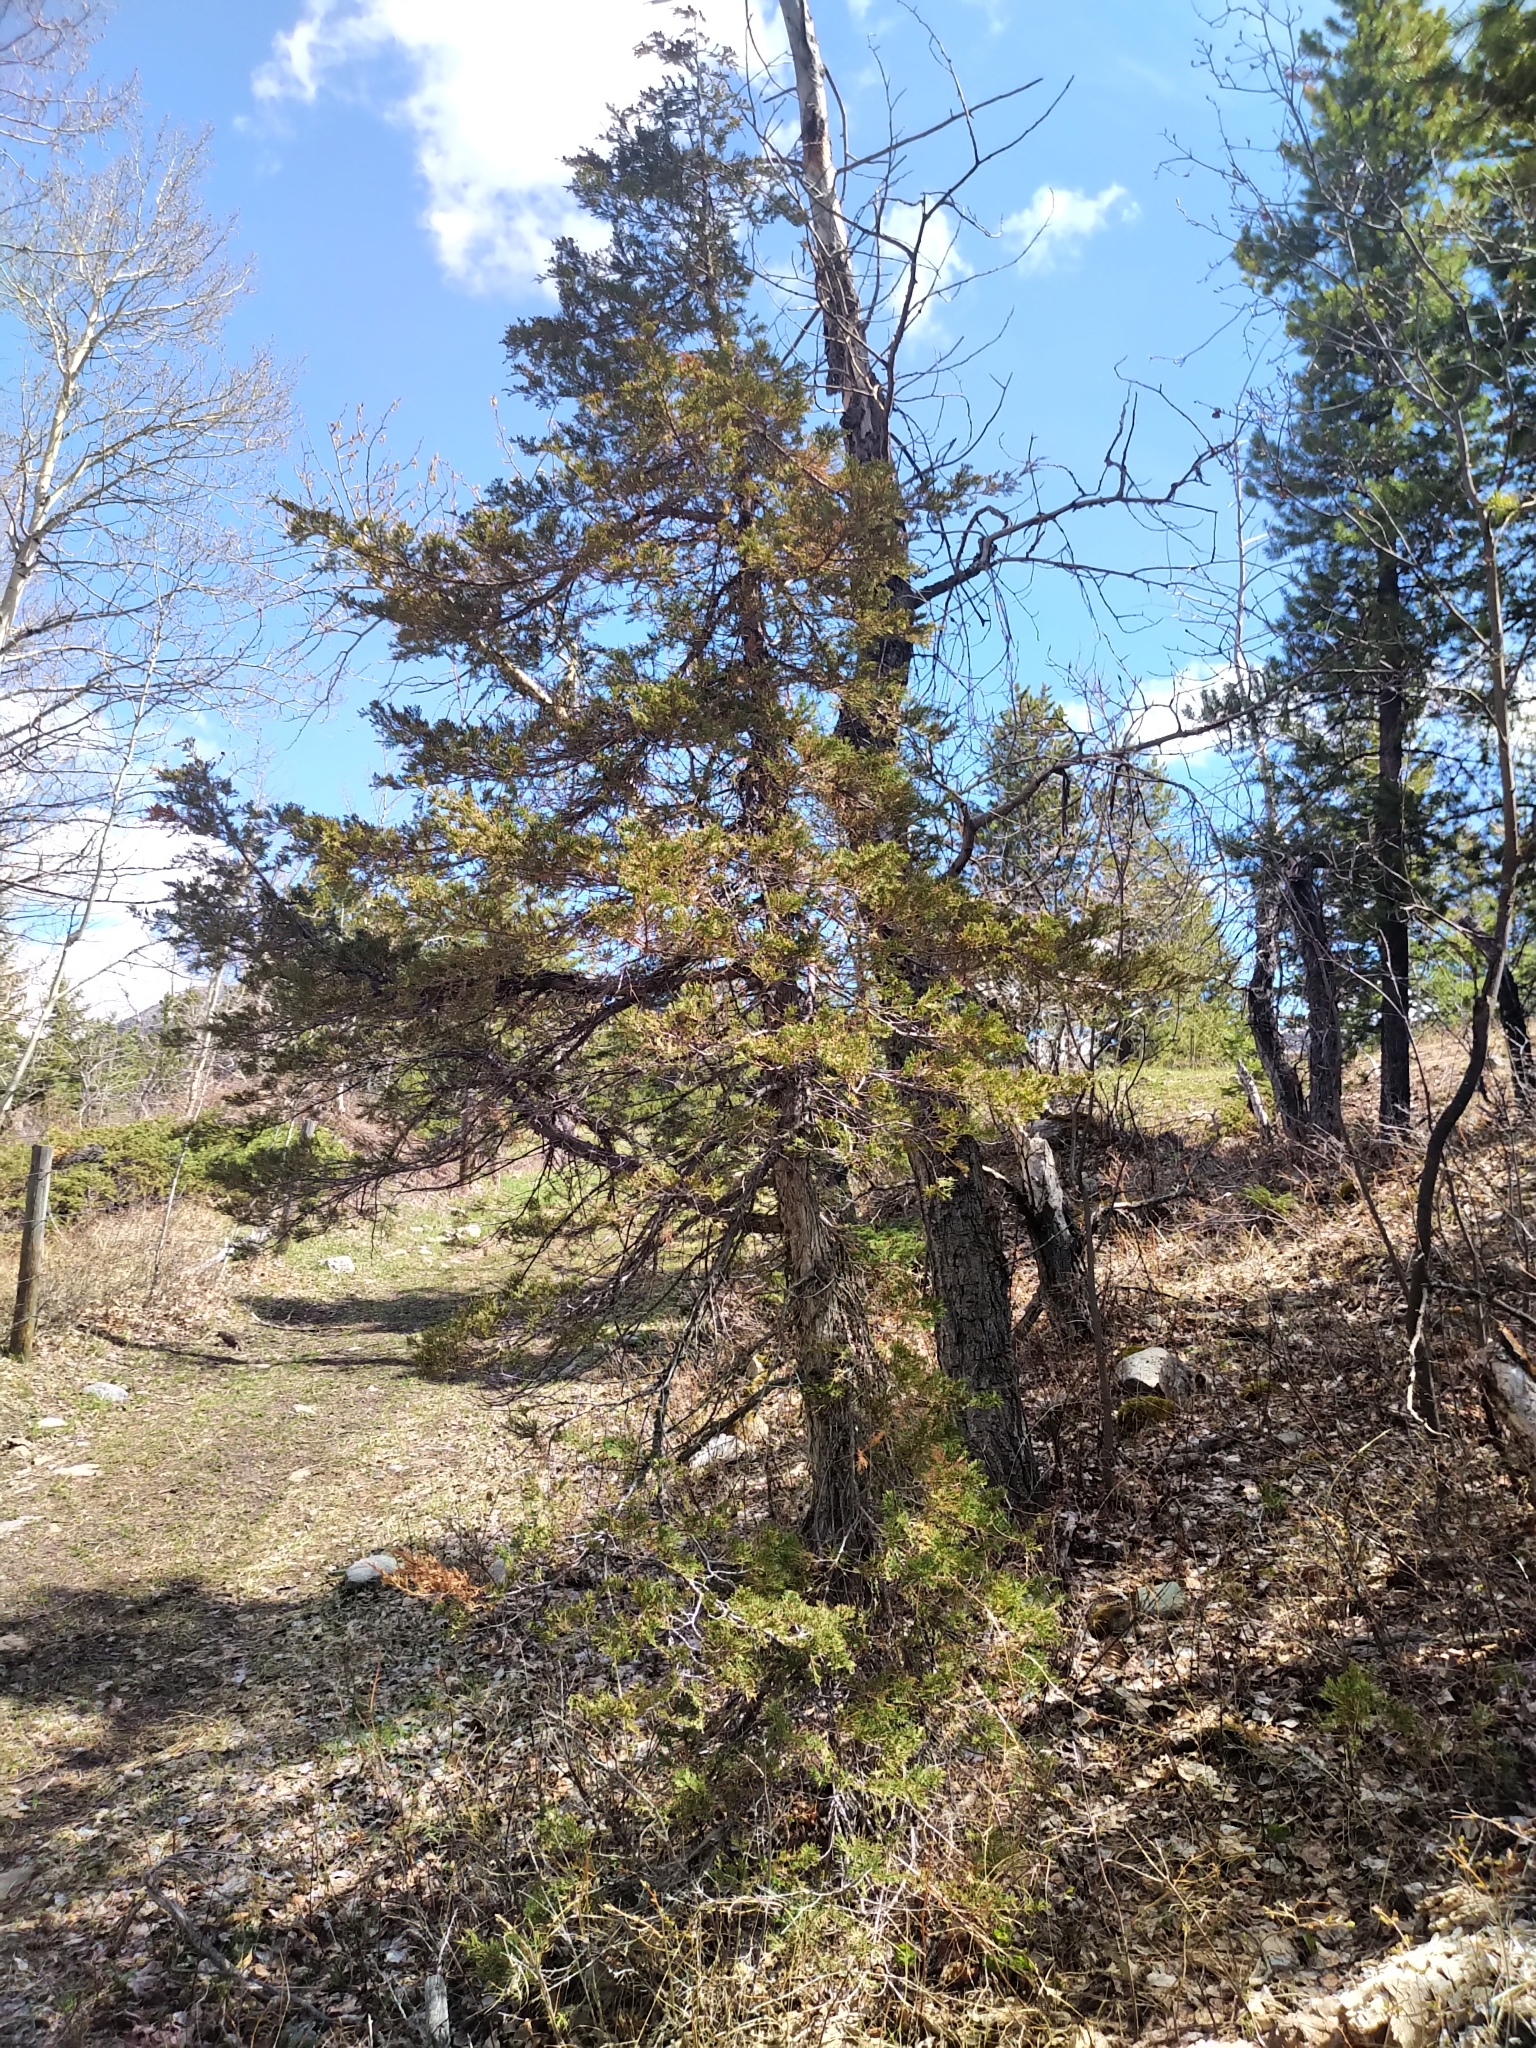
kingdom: Plantae
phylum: Tracheophyta
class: Pinopsida
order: Pinales
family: Cupressaceae
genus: Juniperus
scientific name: Juniperus scopulorum
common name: Rocky mountain juniper
